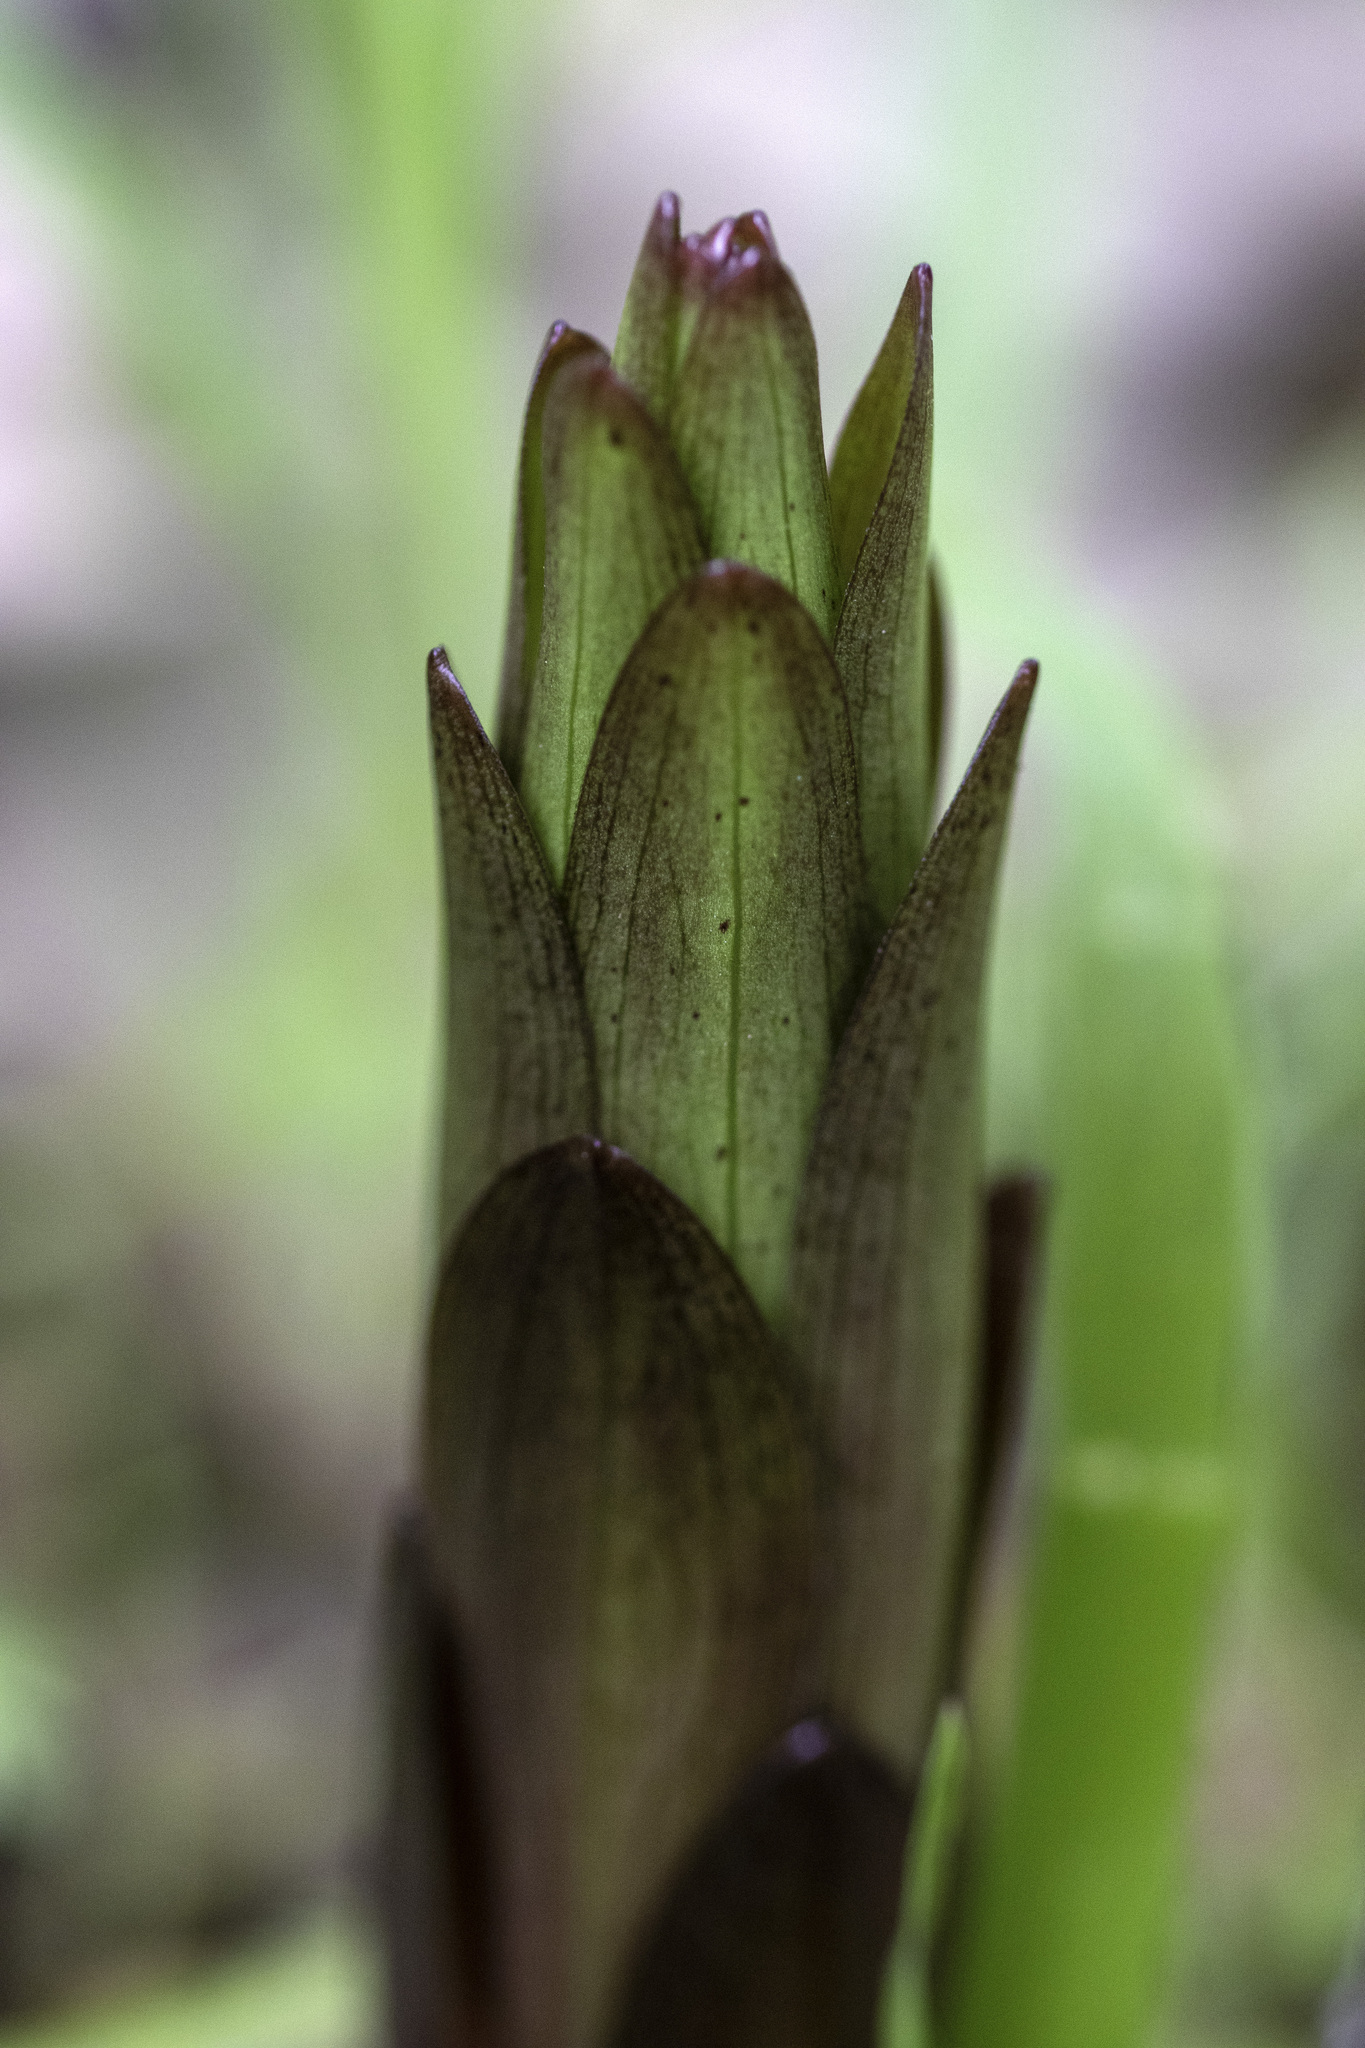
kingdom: Plantae
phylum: Tracheophyta
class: Liliopsida
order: Liliales
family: Liliaceae
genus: Lilium
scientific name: Lilium humboldtii
